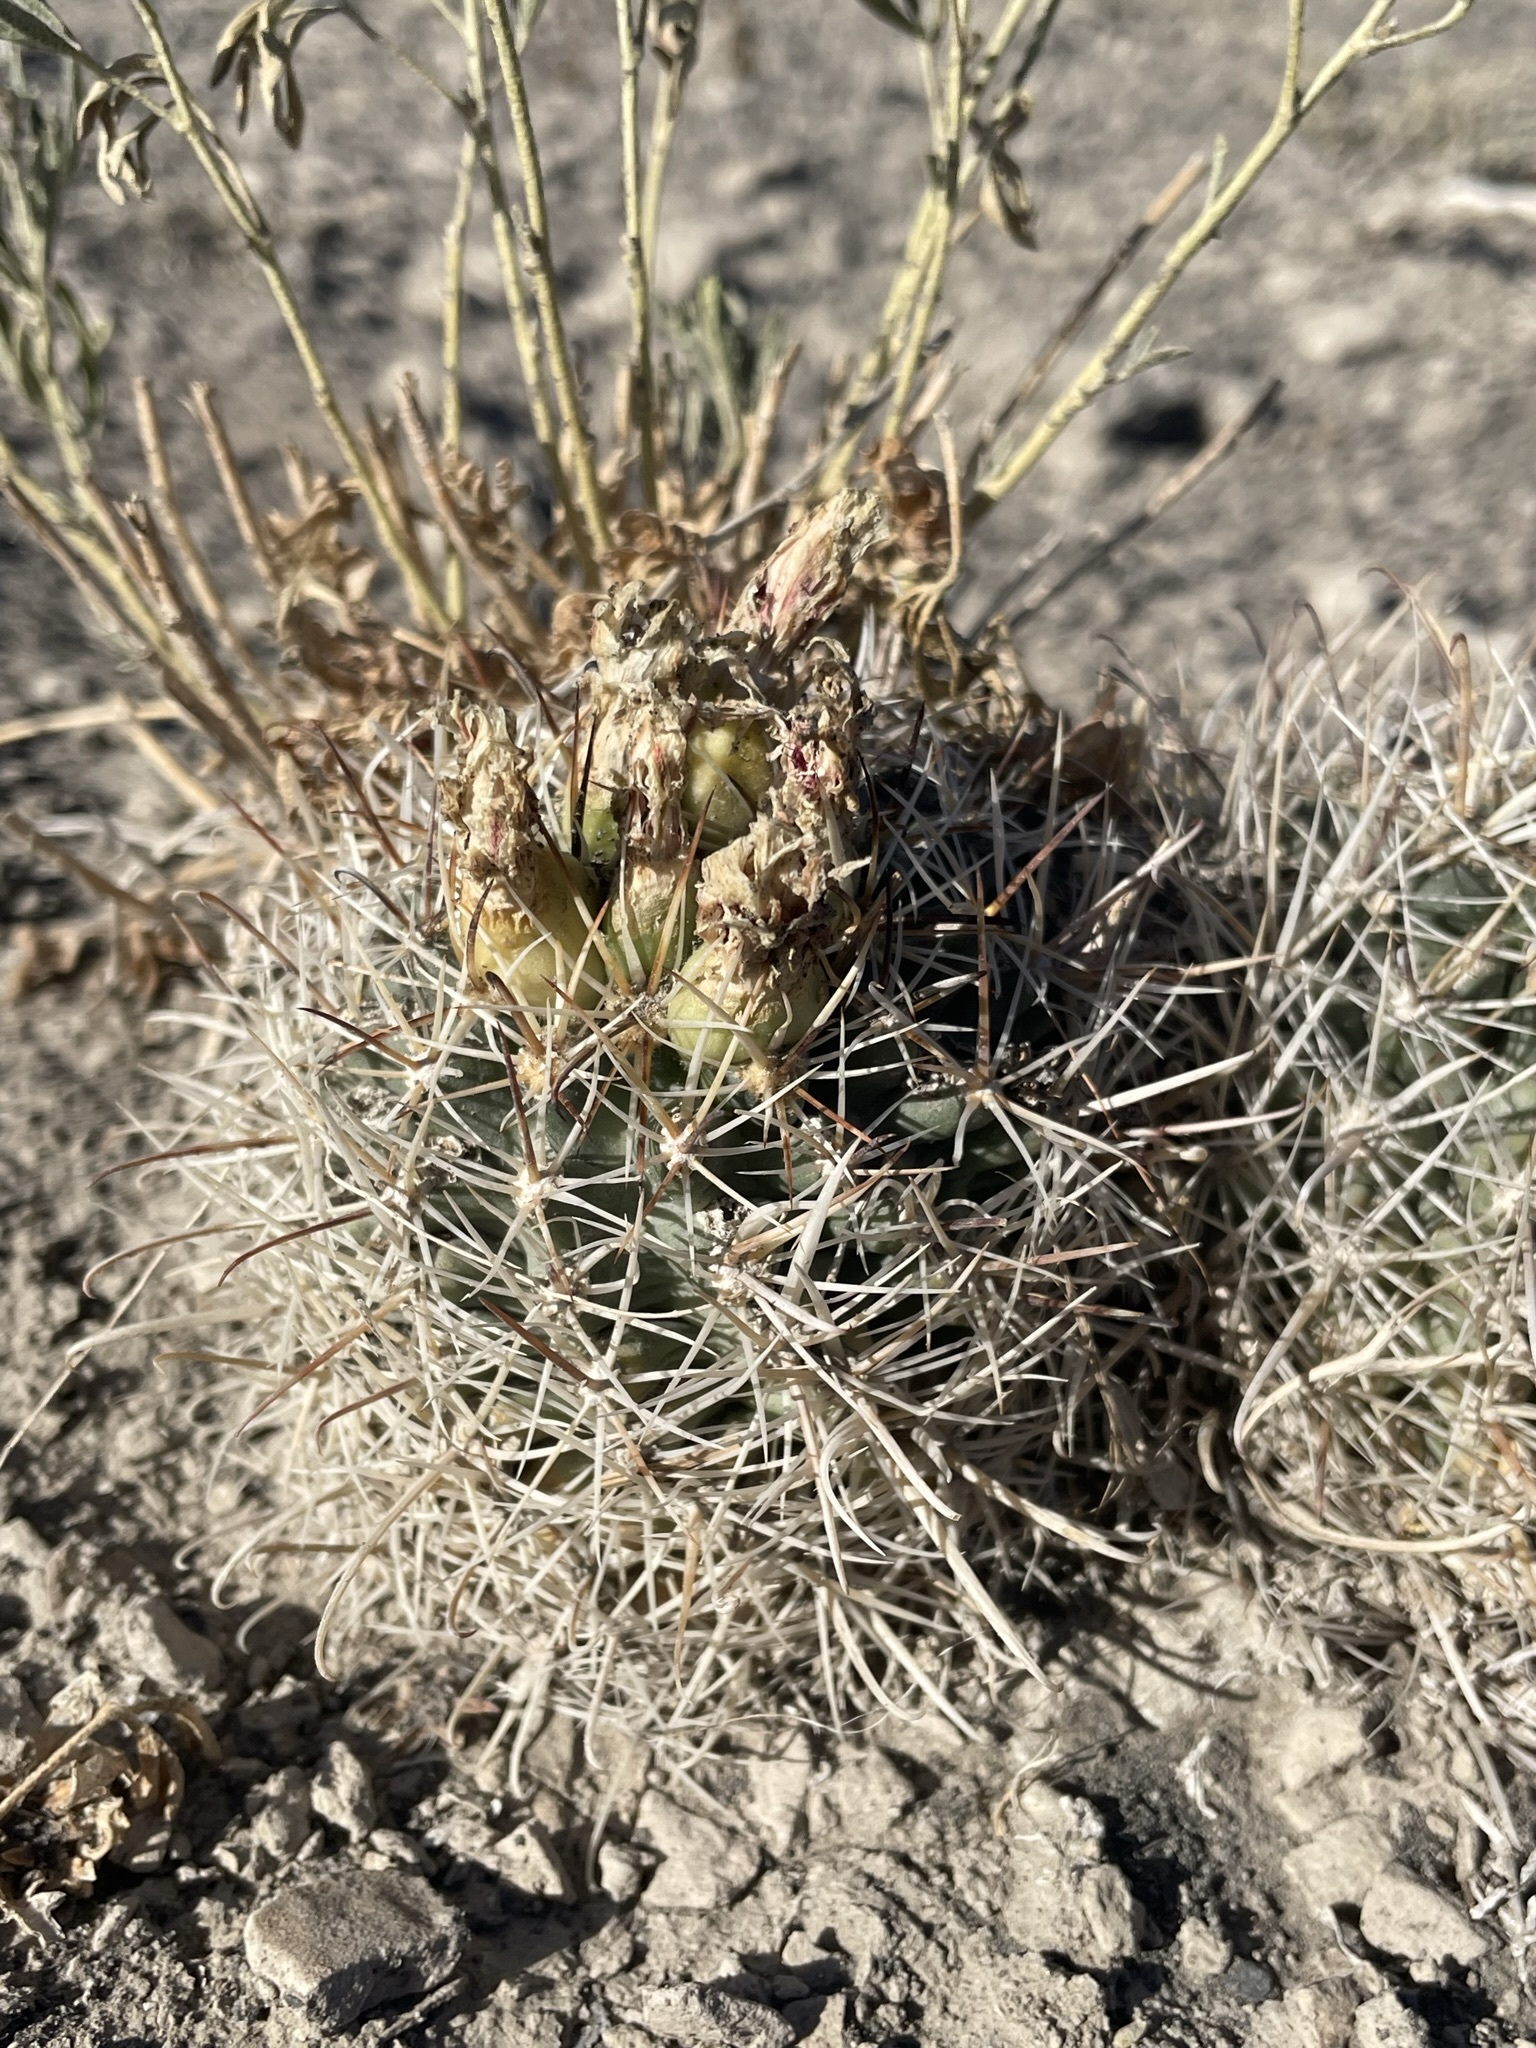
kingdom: Plantae
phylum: Tracheophyta
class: Magnoliopsida
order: Caryophyllales
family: Cactaceae
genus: Sclerocactus
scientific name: Sclerocactus parviflorus
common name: Small-flower fishhook cactus
